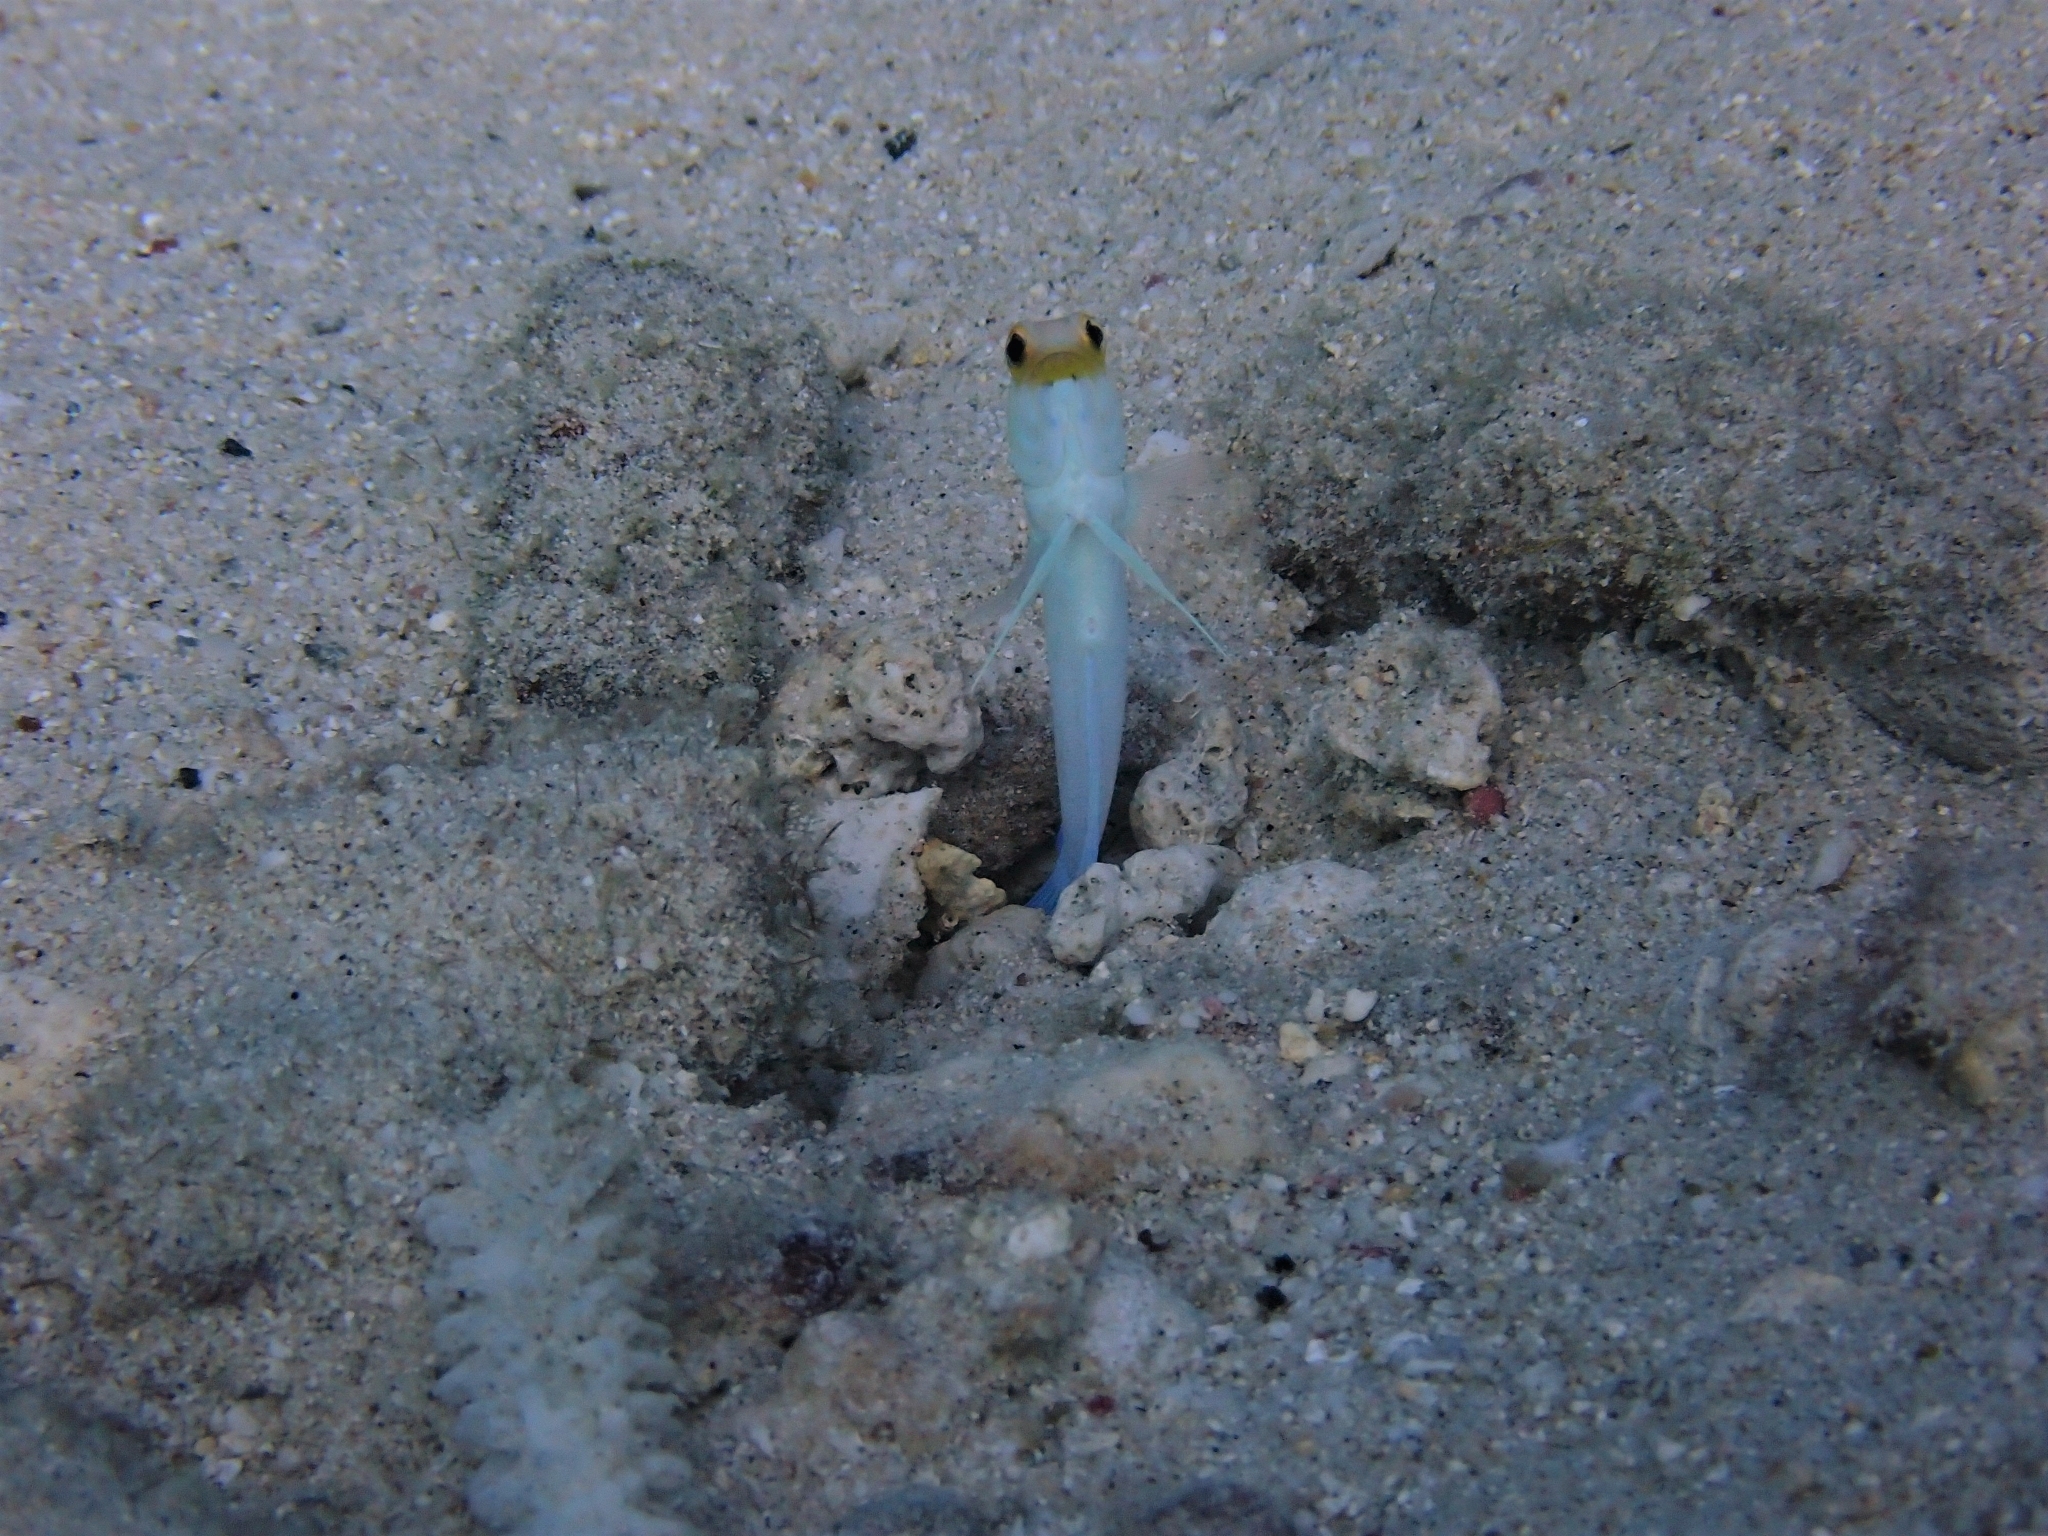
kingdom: Animalia
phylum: Chordata
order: Perciformes
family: Opistognathidae
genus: Opistognathus
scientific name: Opistognathus aurifrons
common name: Yellowhead jawfish
